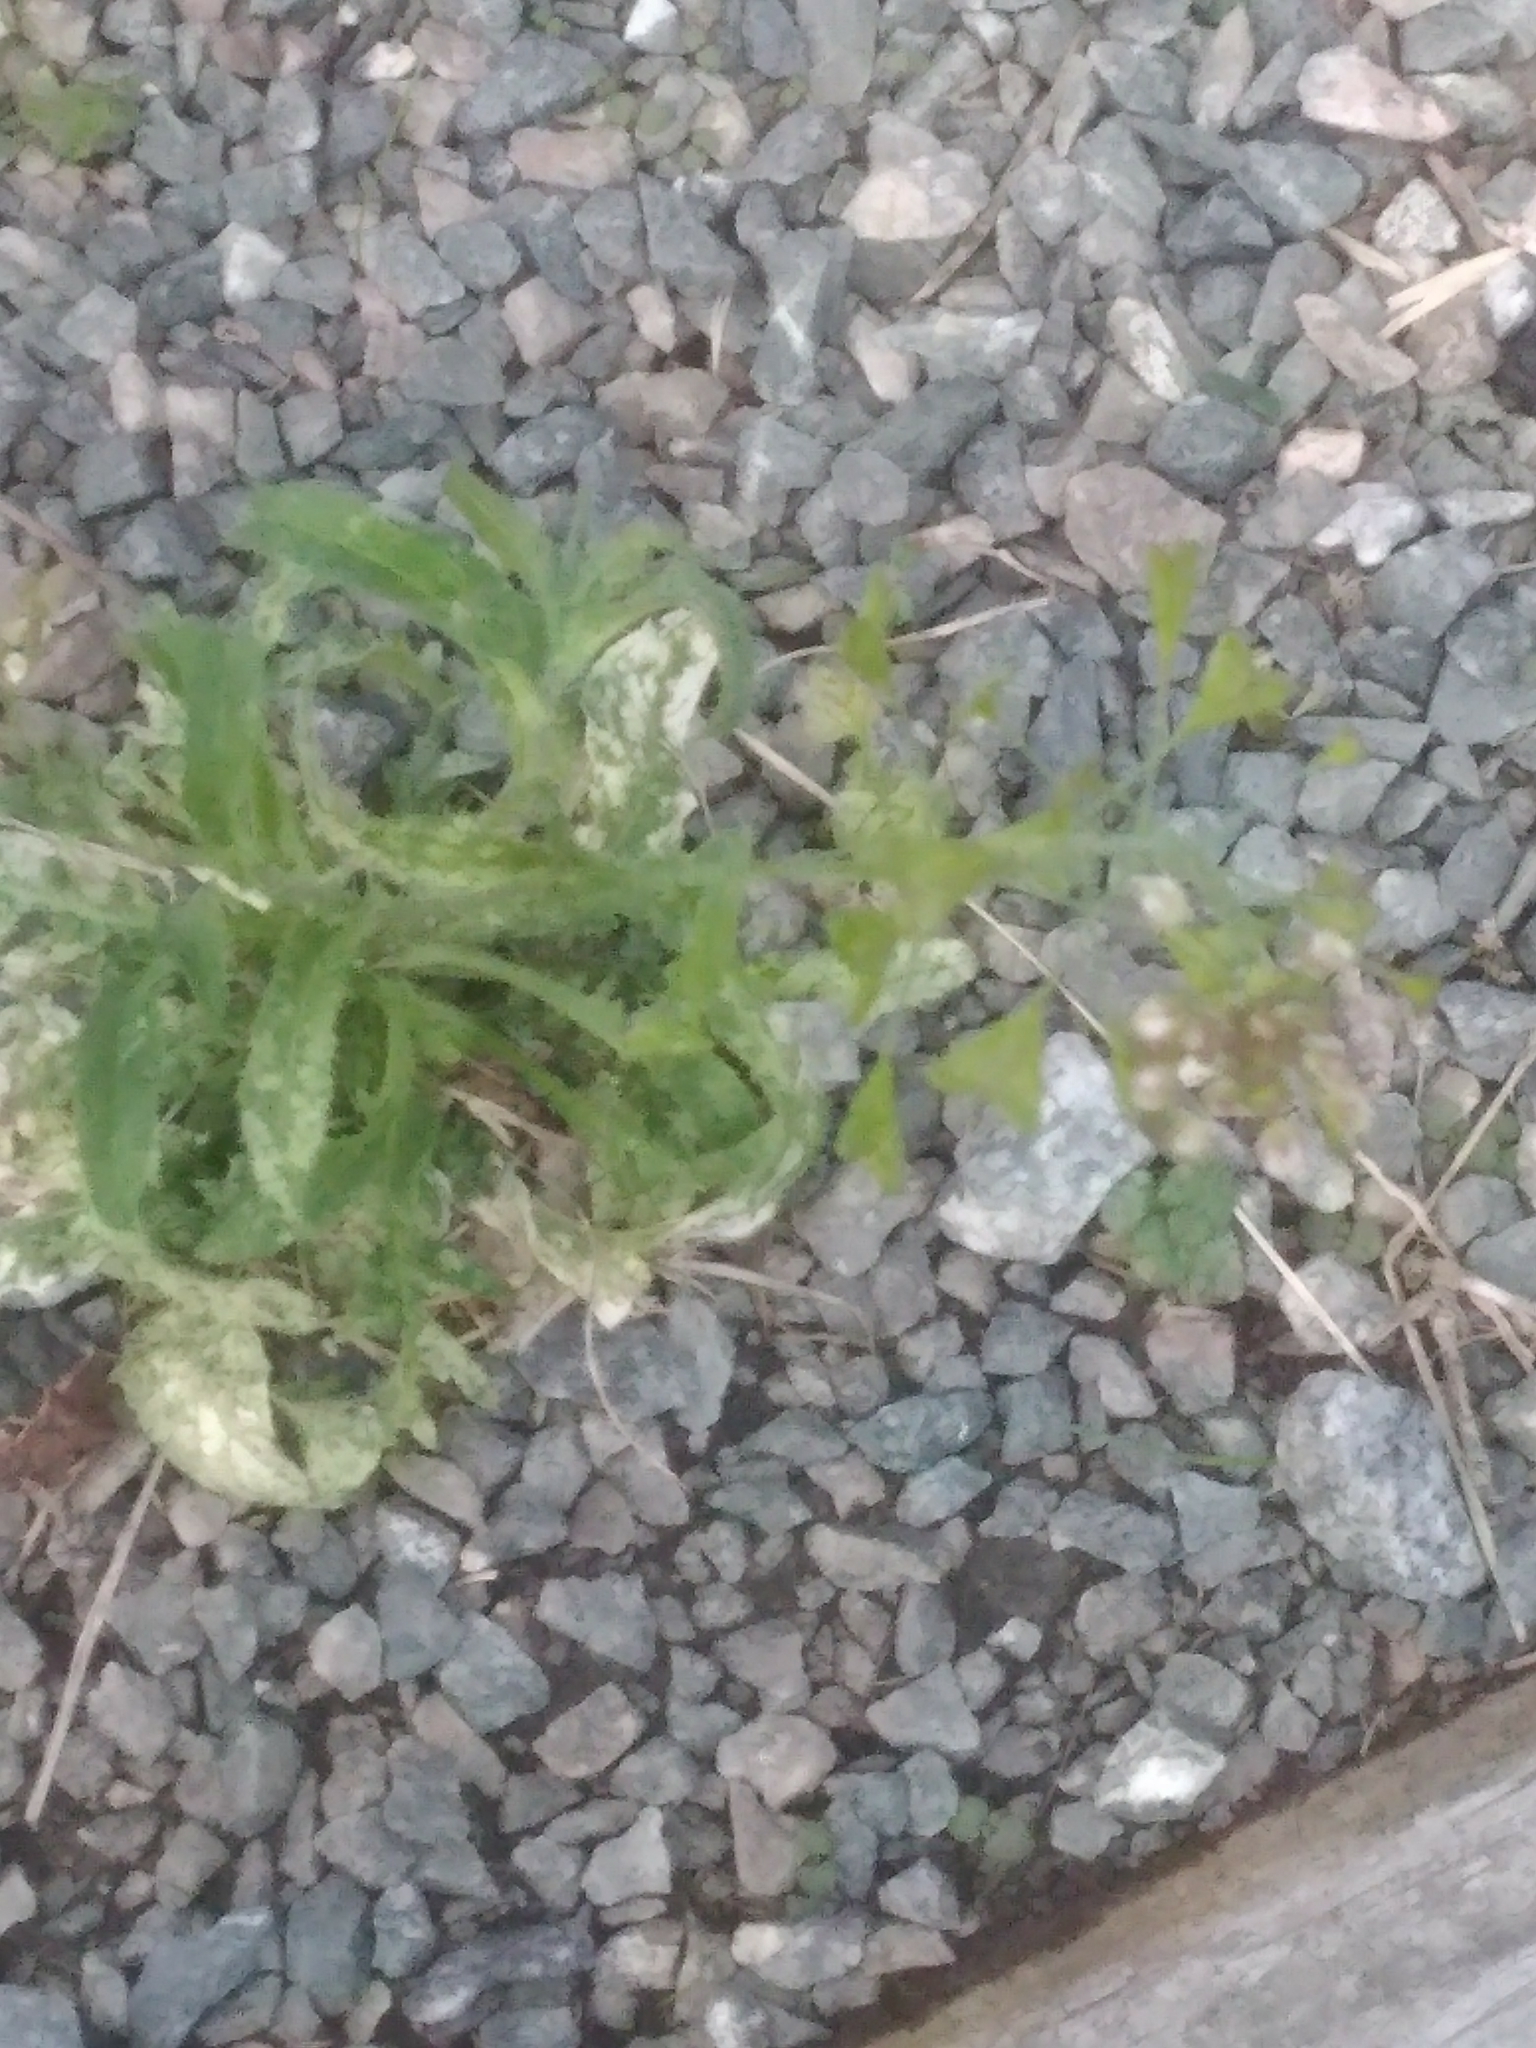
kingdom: Plantae
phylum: Tracheophyta
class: Magnoliopsida
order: Brassicales
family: Brassicaceae
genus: Capsella
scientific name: Capsella bursa-pastoris
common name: Shepherd's purse
